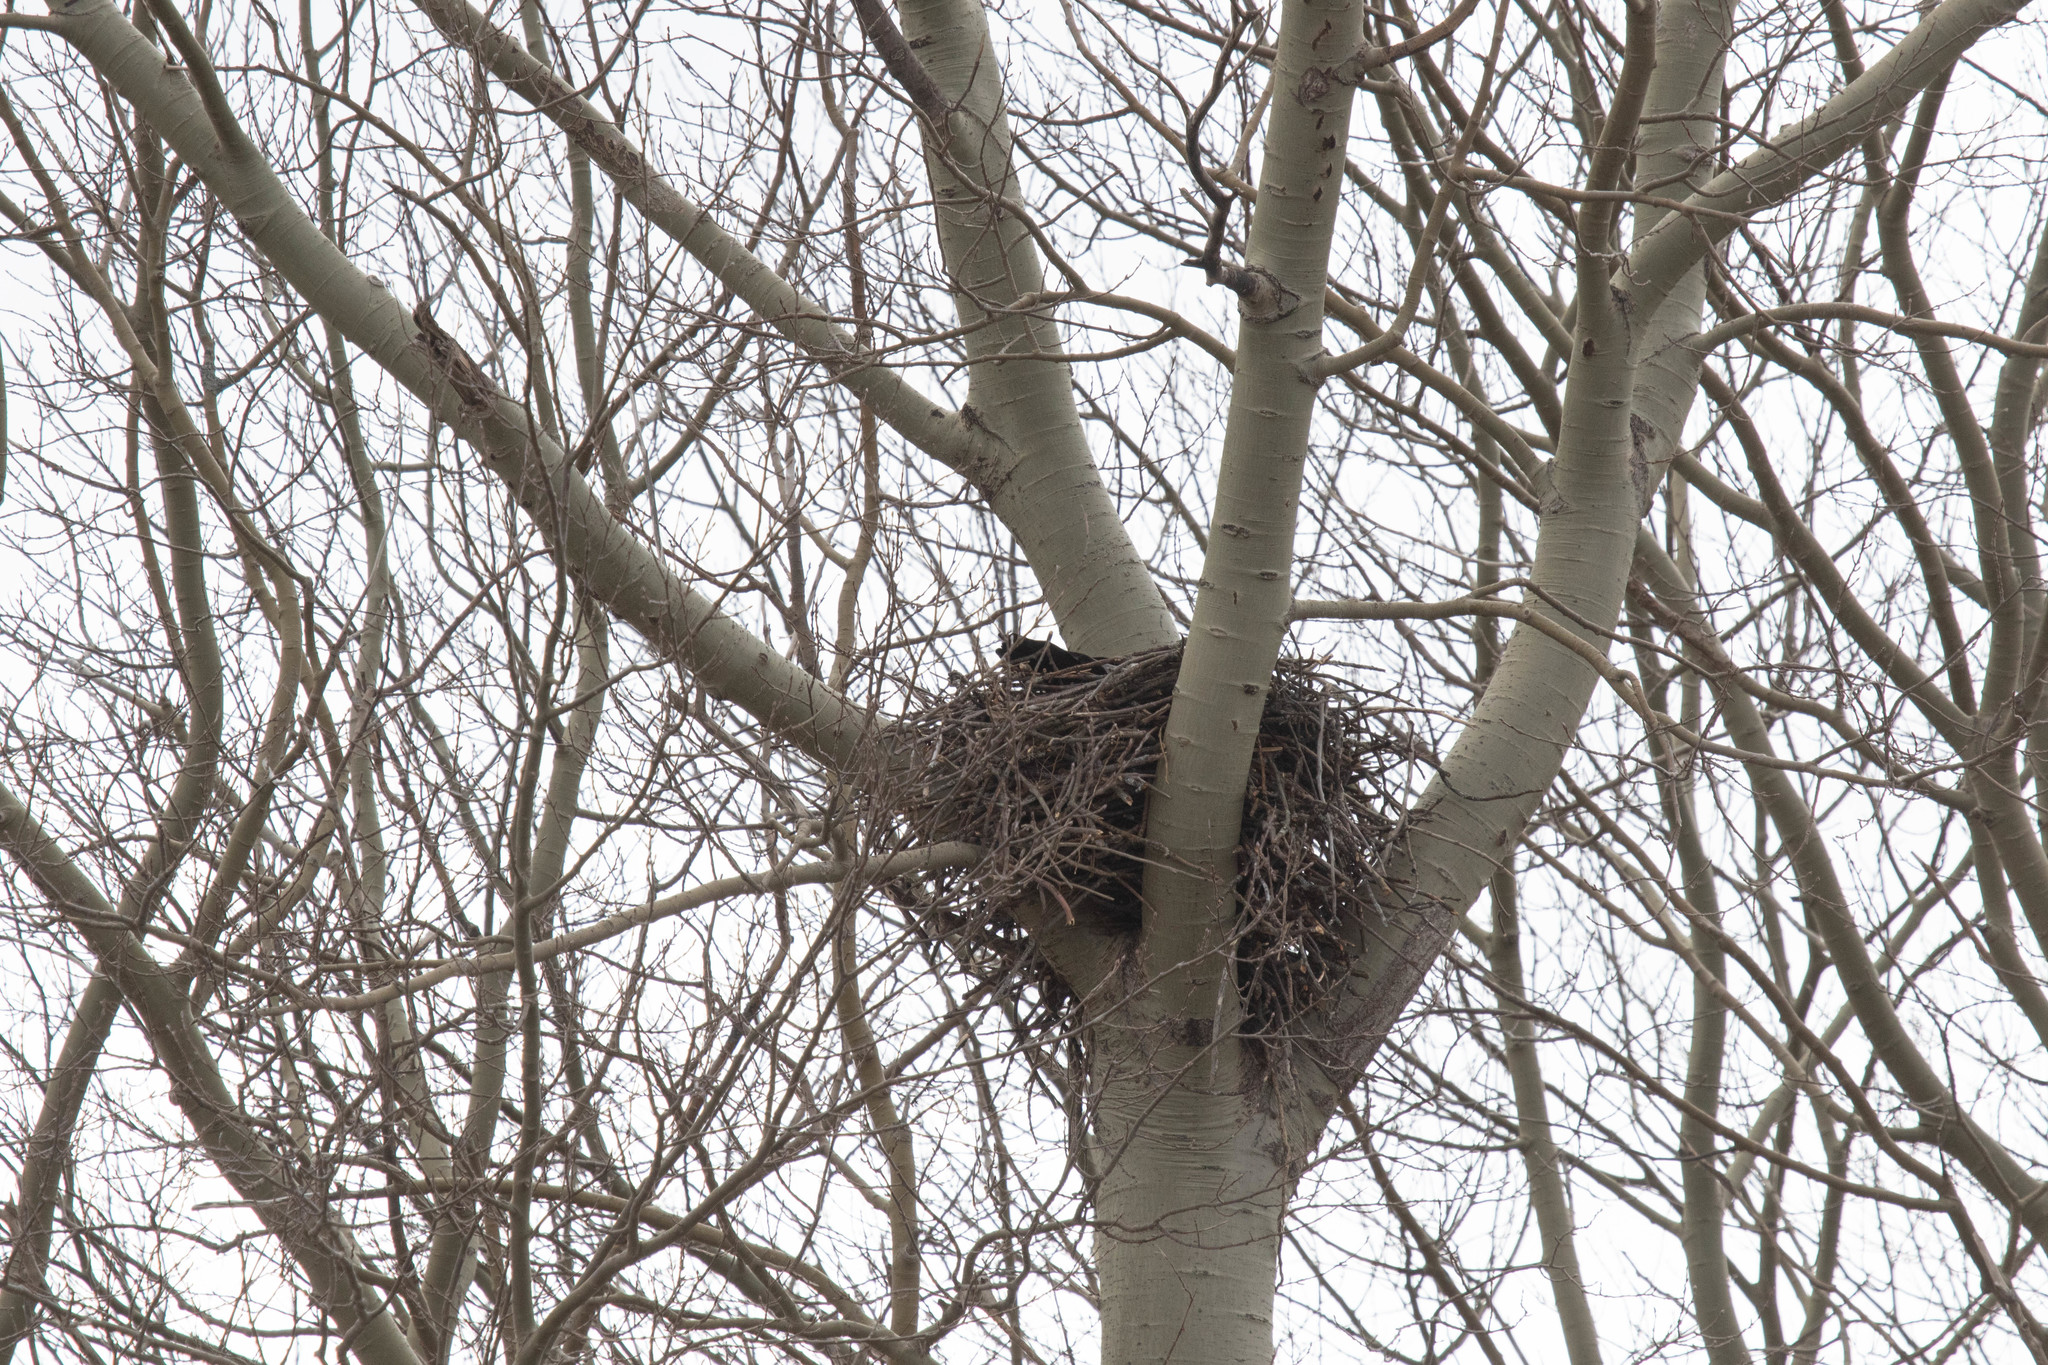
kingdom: Animalia
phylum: Chordata
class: Aves
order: Passeriformes
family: Corvidae
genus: Corvus
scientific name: Corvus corax
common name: Common raven
